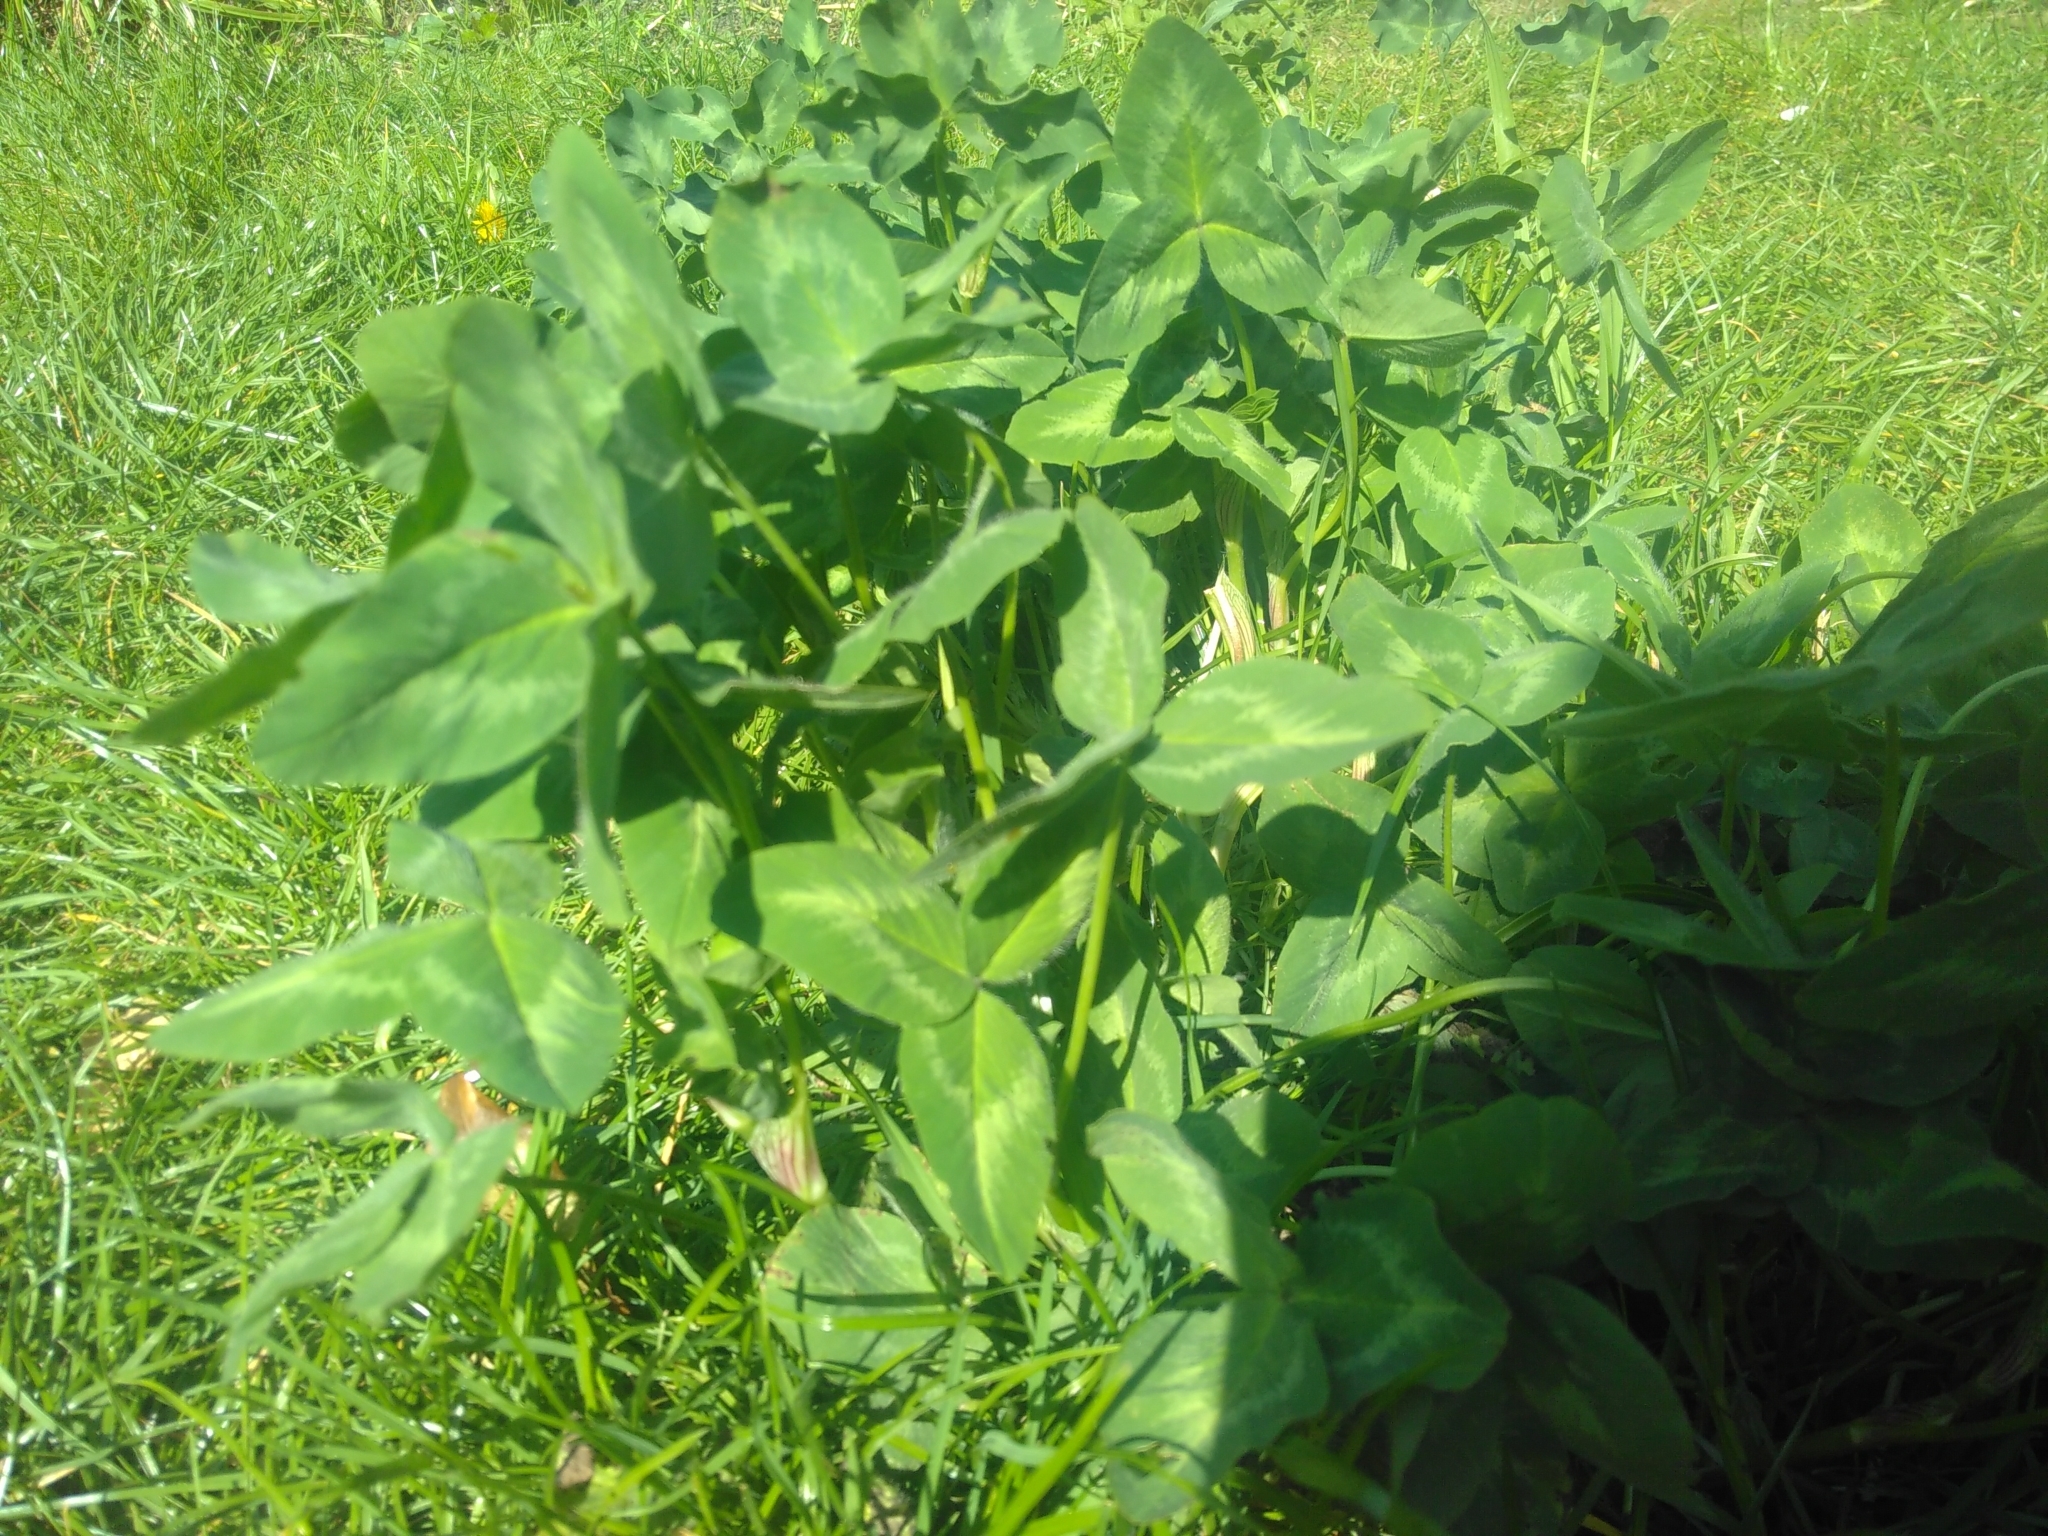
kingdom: Plantae
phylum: Tracheophyta
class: Magnoliopsida
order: Fabales
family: Fabaceae
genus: Trifolium
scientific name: Trifolium pratense
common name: Red clover
